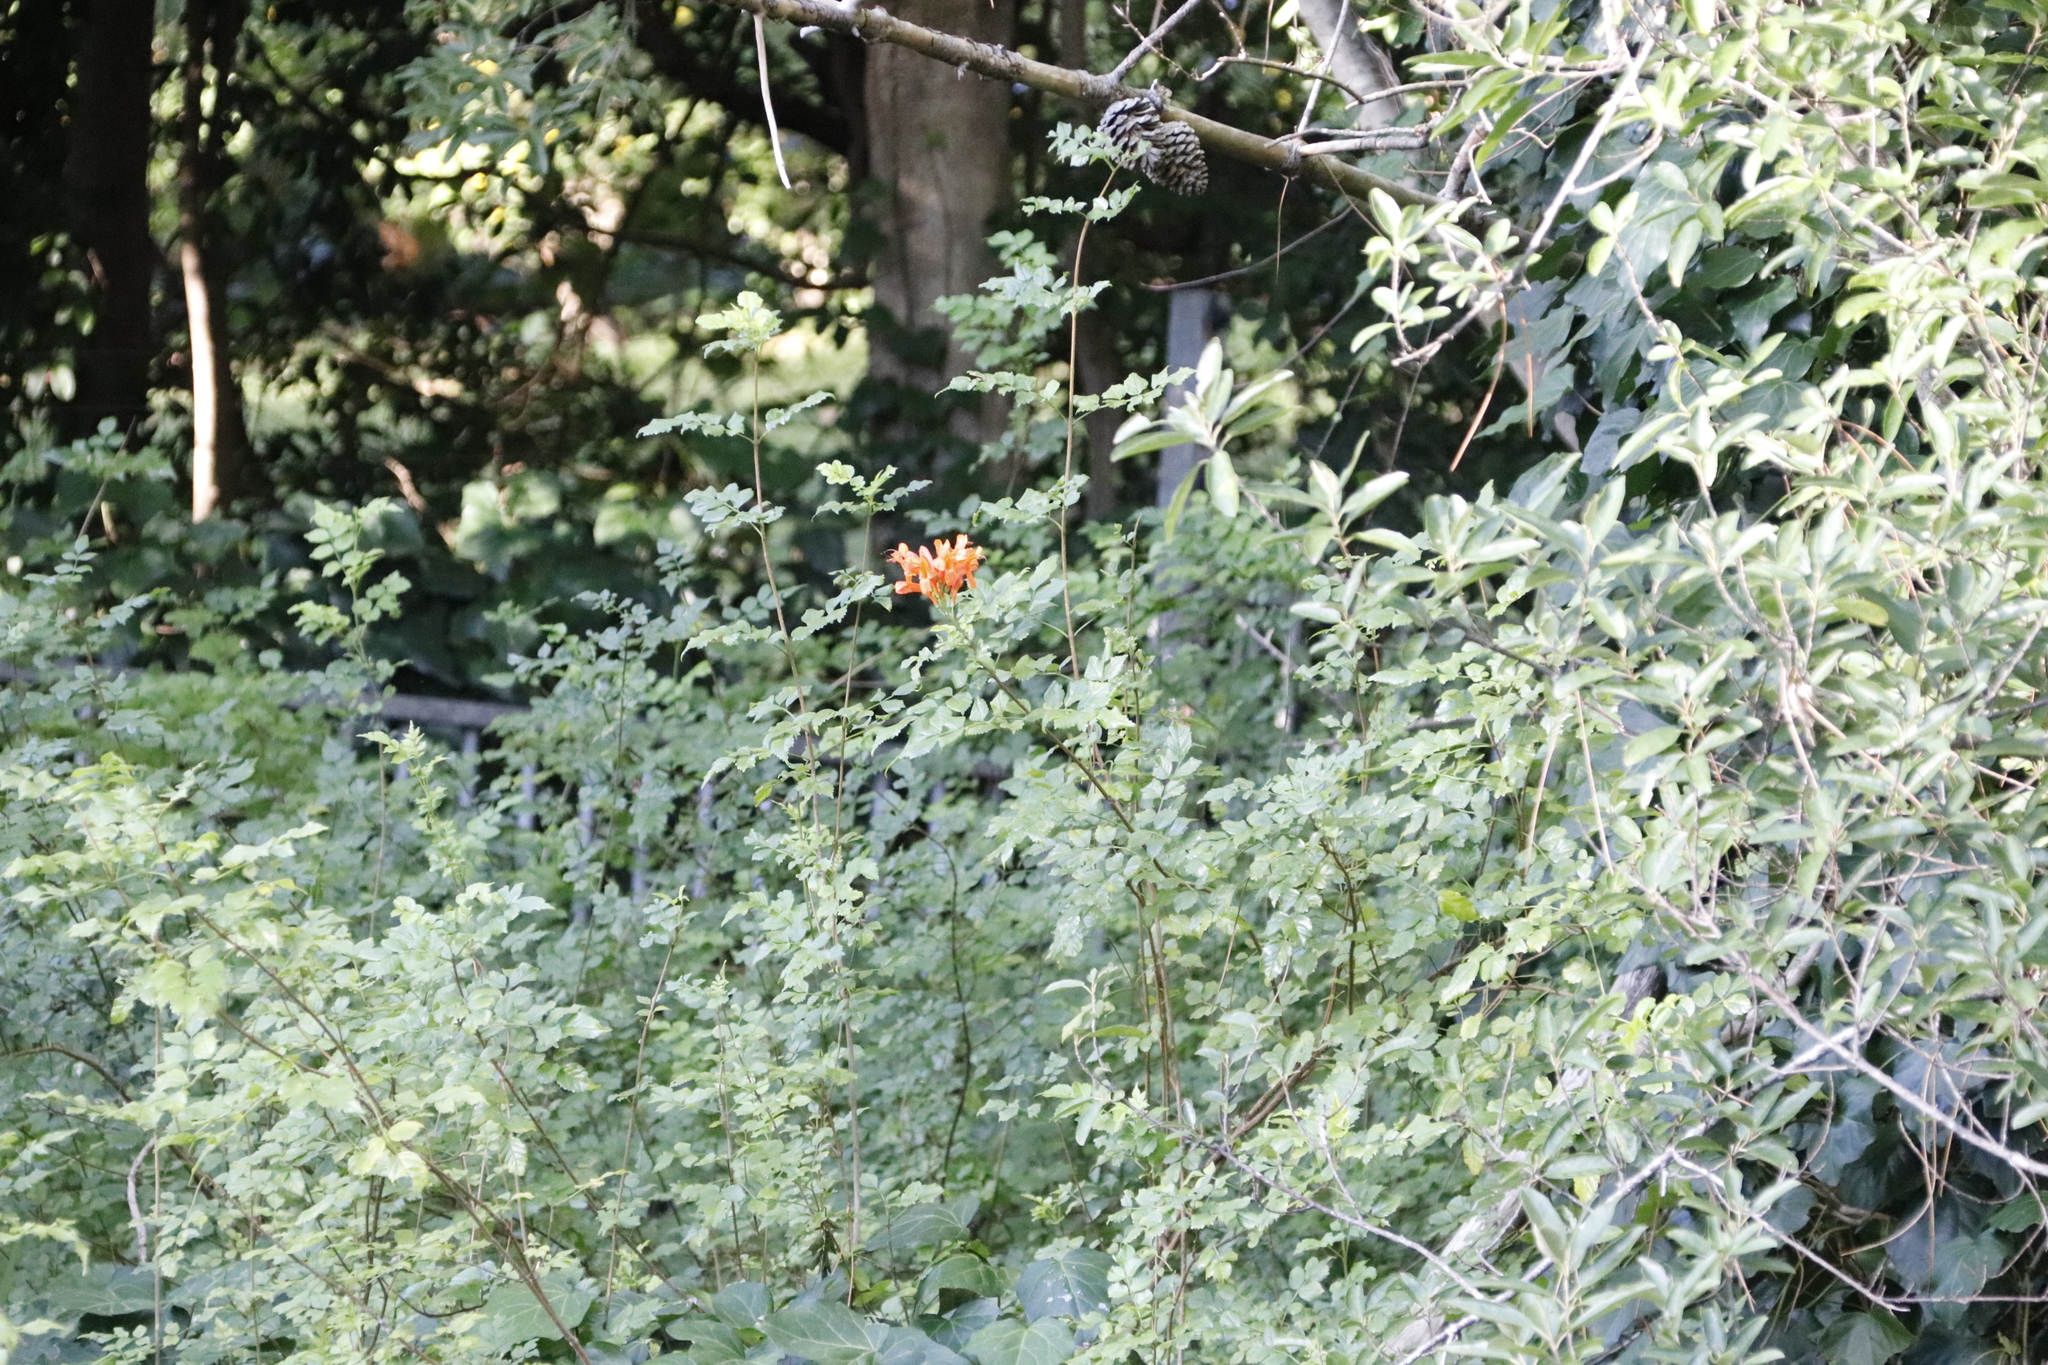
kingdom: Plantae
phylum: Tracheophyta
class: Magnoliopsida
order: Lamiales
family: Bignoniaceae
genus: Tecomaria
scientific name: Tecomaria capensis
